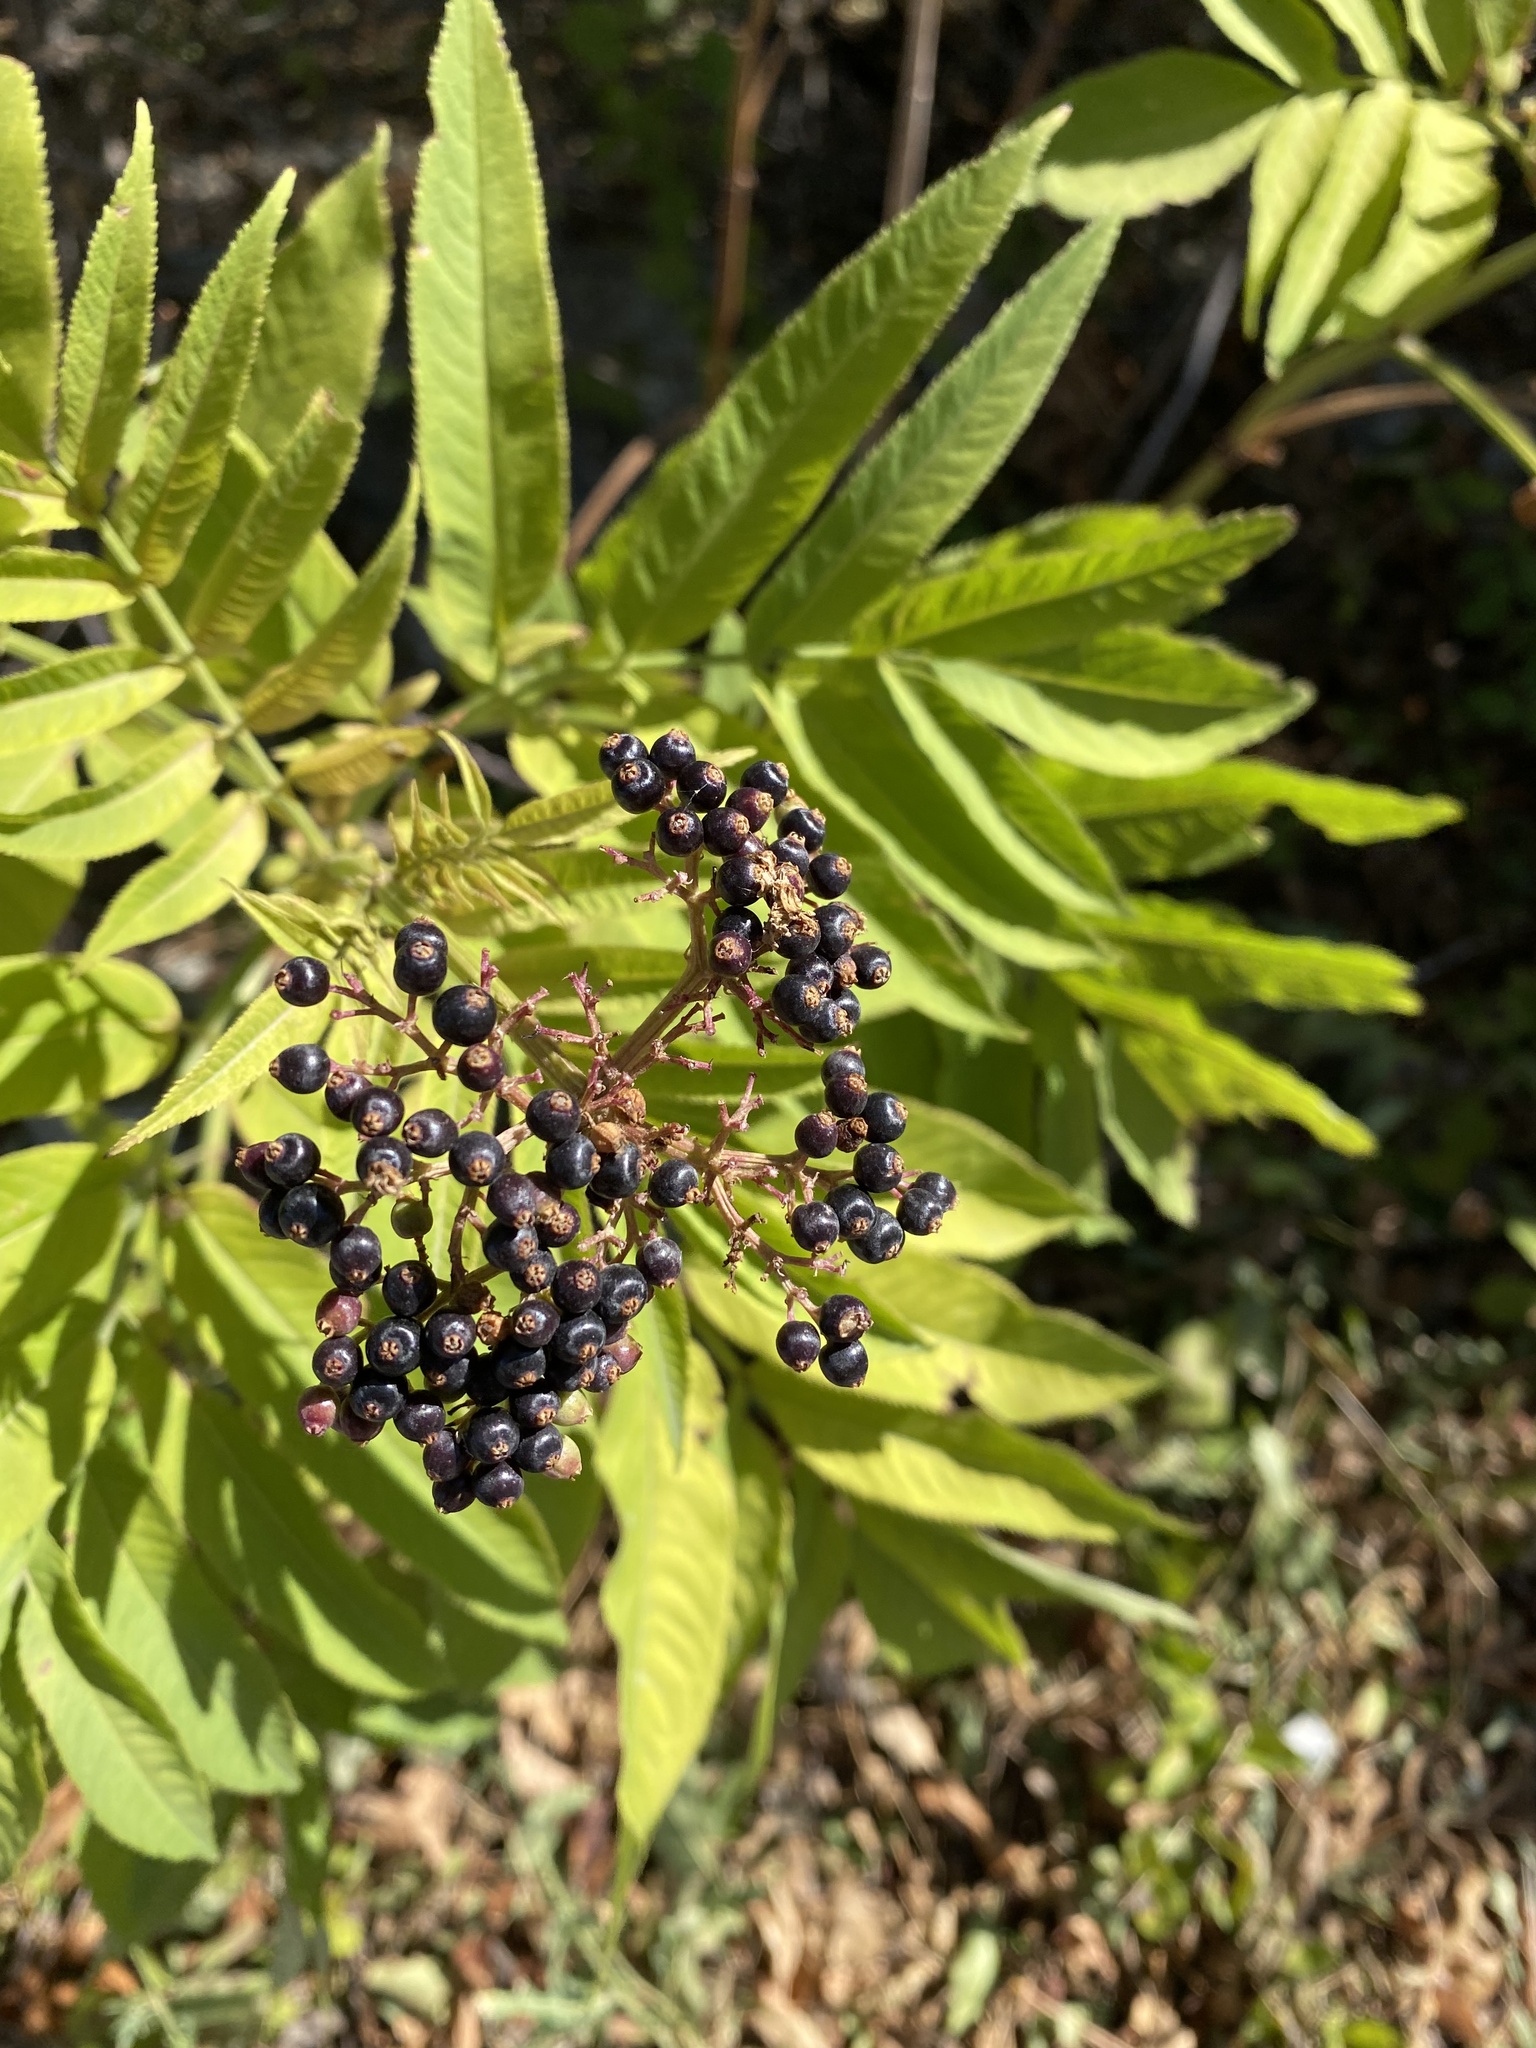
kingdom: Plantae
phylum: Tracheophyta
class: Magnoliopsida
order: Dipsacales
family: Viburnaceae
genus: Sambucus
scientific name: Sambucus ebulus
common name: Dwarf elder
